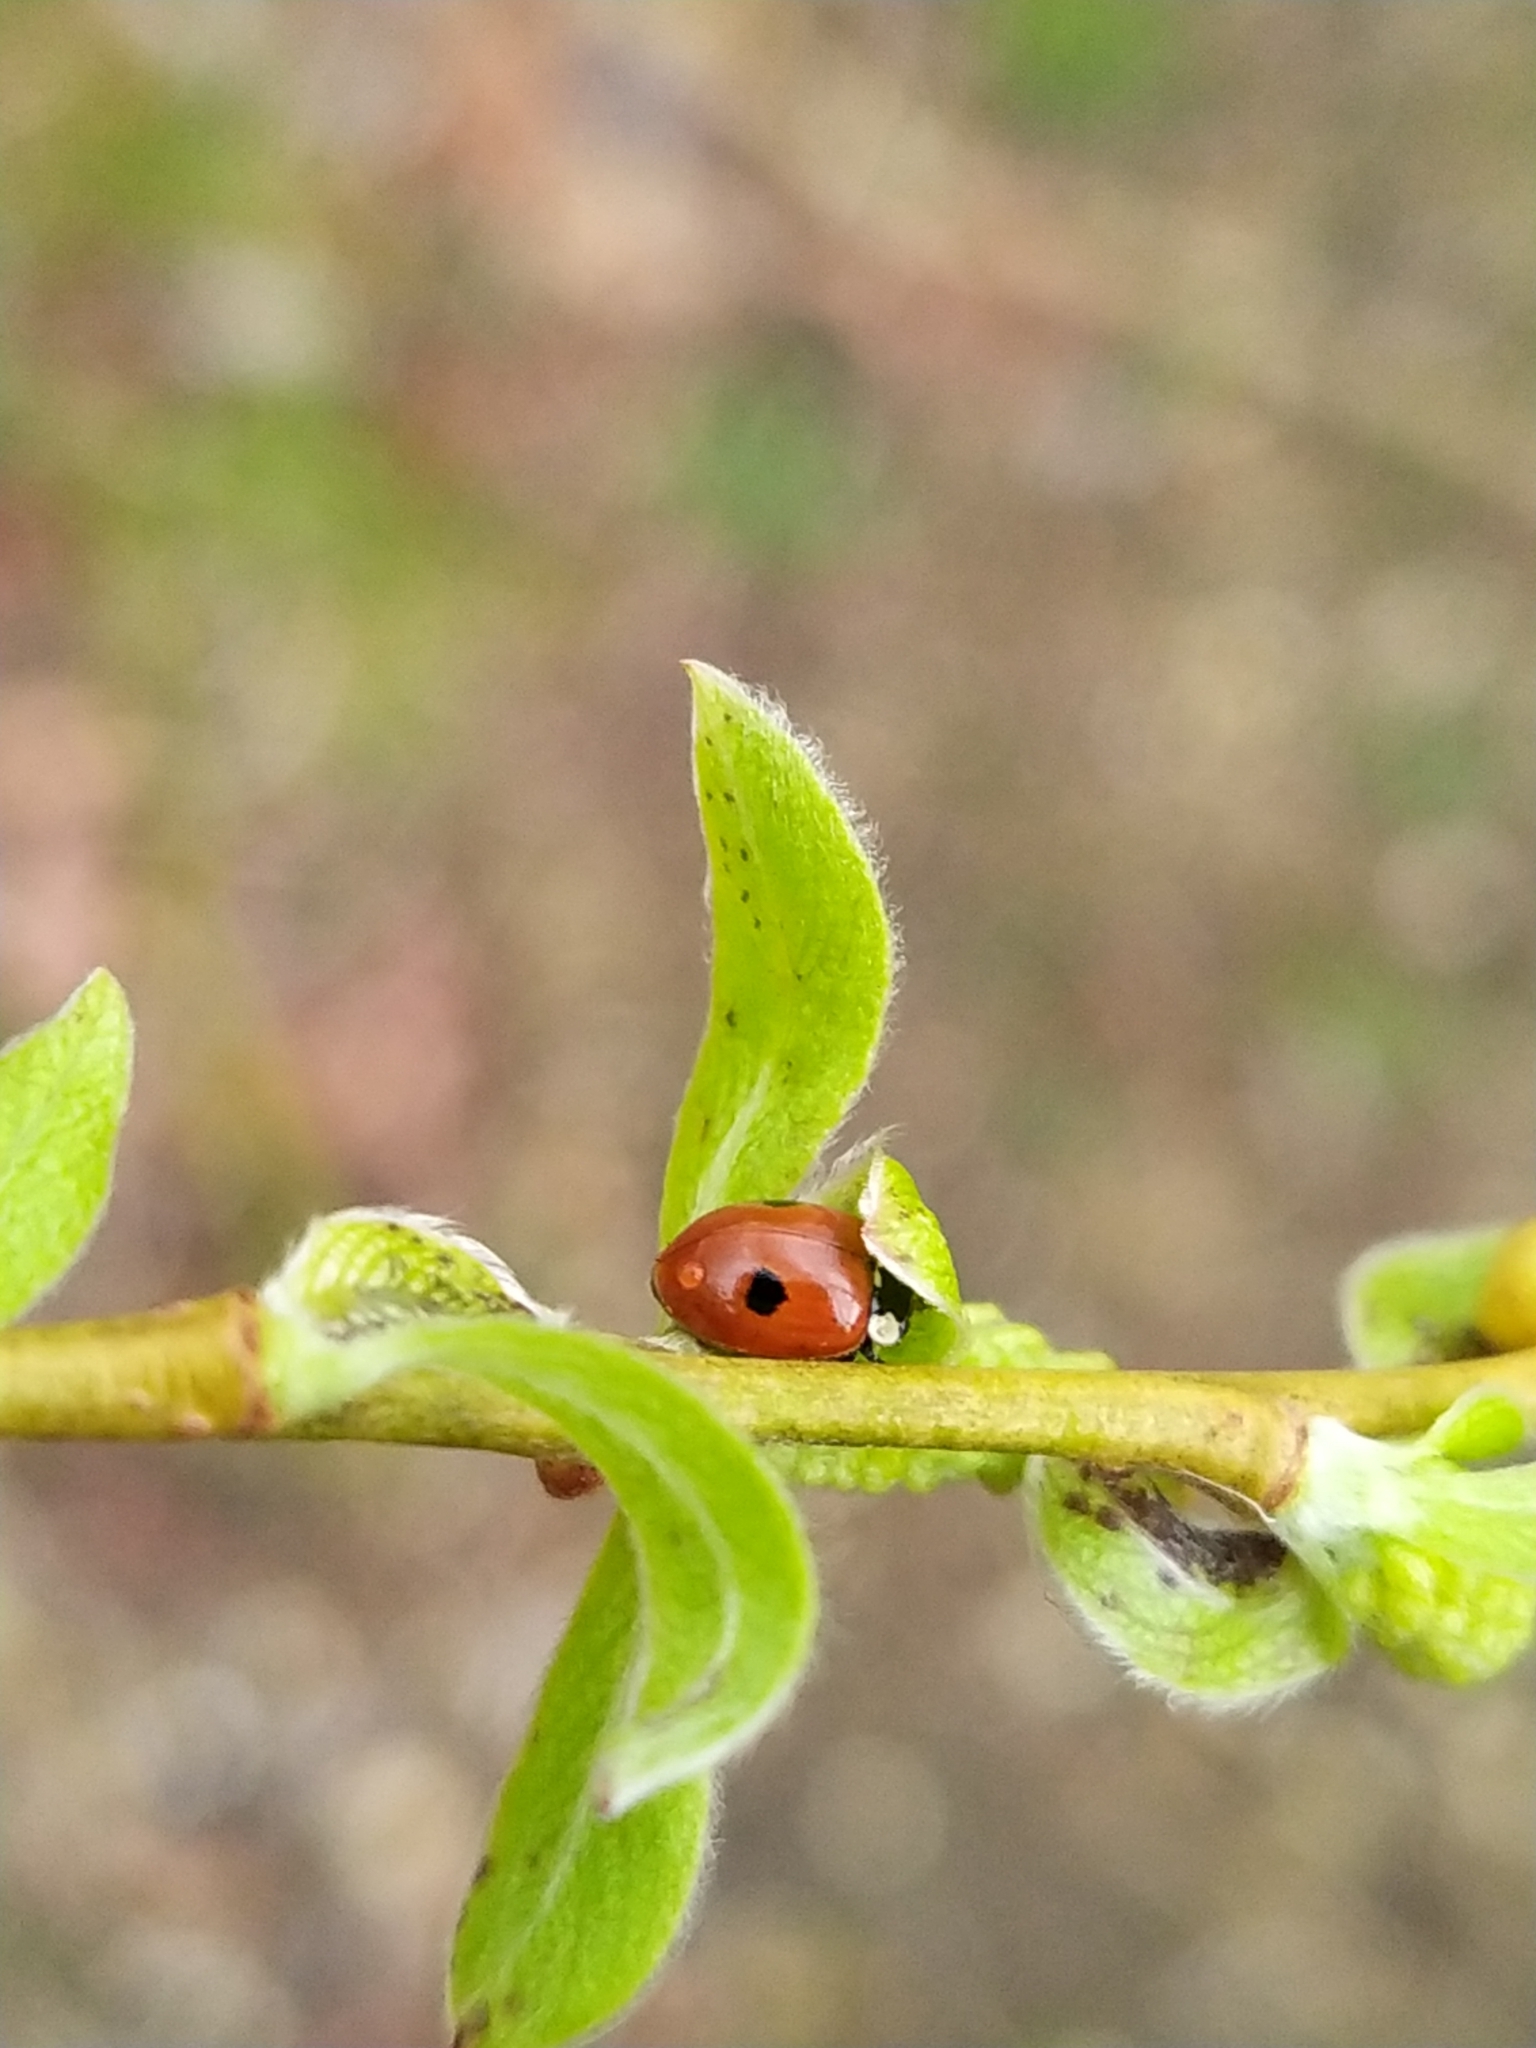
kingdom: Animalia
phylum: Arthropoda
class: Insecta
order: Coleoptera
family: Coccinellidae
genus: Adalia
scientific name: Adalia bipunctata
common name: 2-spot ladybird
